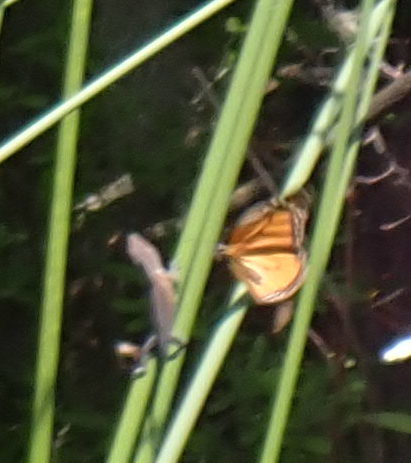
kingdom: Animalia
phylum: Chordata
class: Squamata
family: Dactyloidae
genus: Anolis
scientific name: Anolis carolinensis
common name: Green anole
